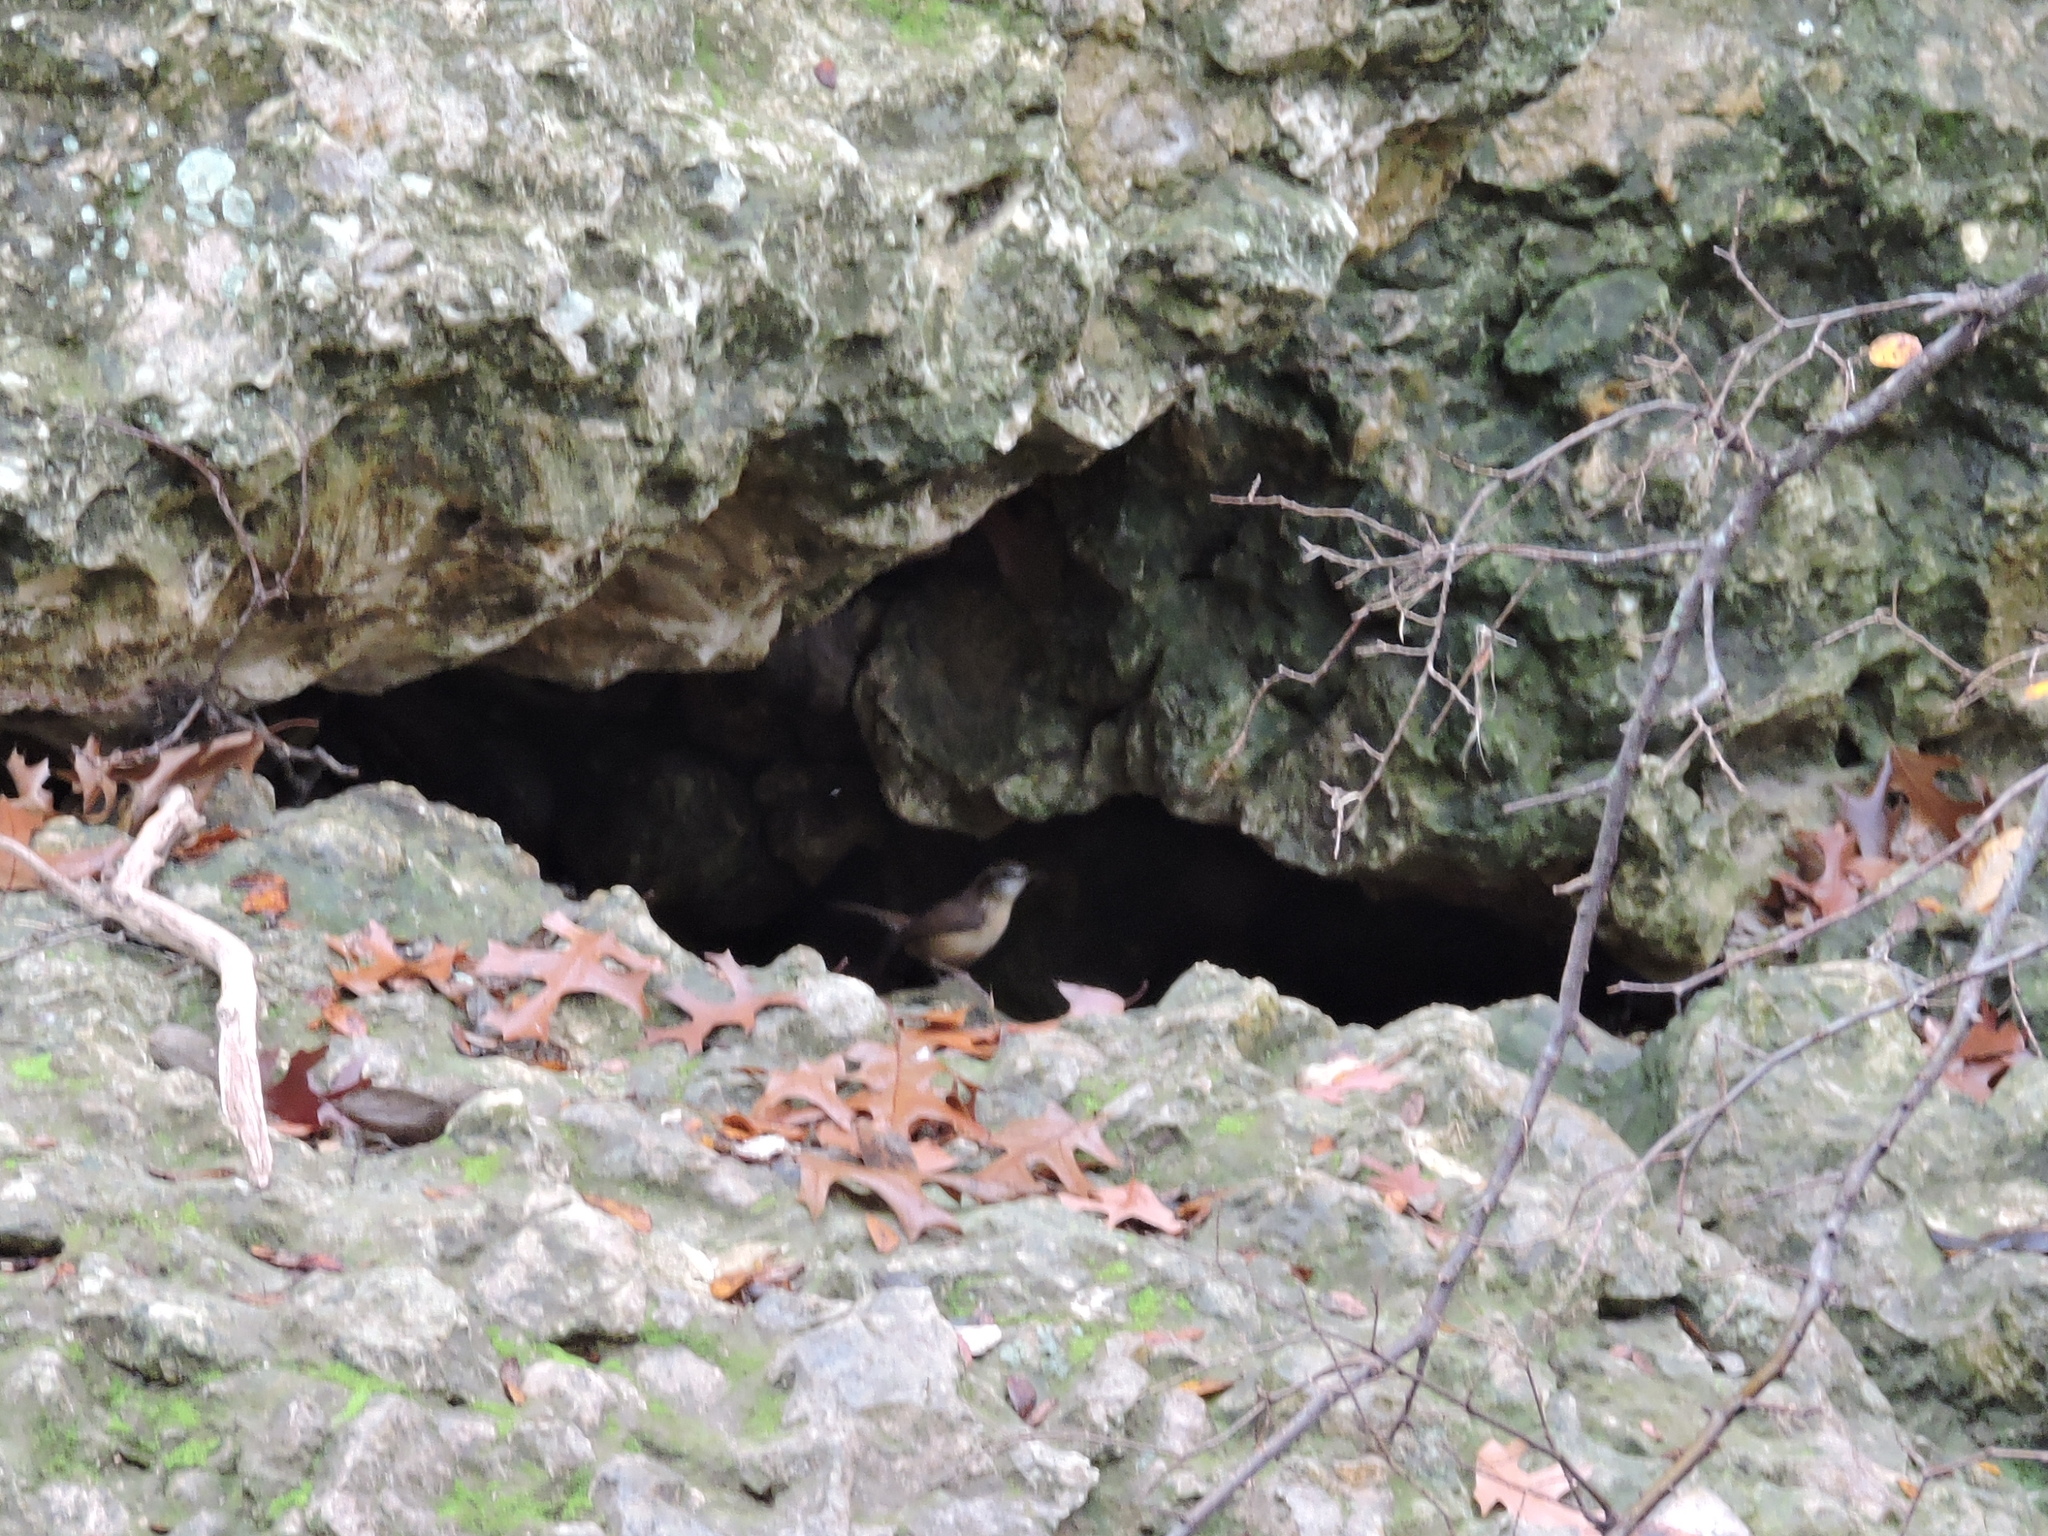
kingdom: Animalia
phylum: Chordata
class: Aves
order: Passeriformes
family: Troglodytidae
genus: Thryothorus
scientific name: Thryothorus ludovicianus
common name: Carolina wren
